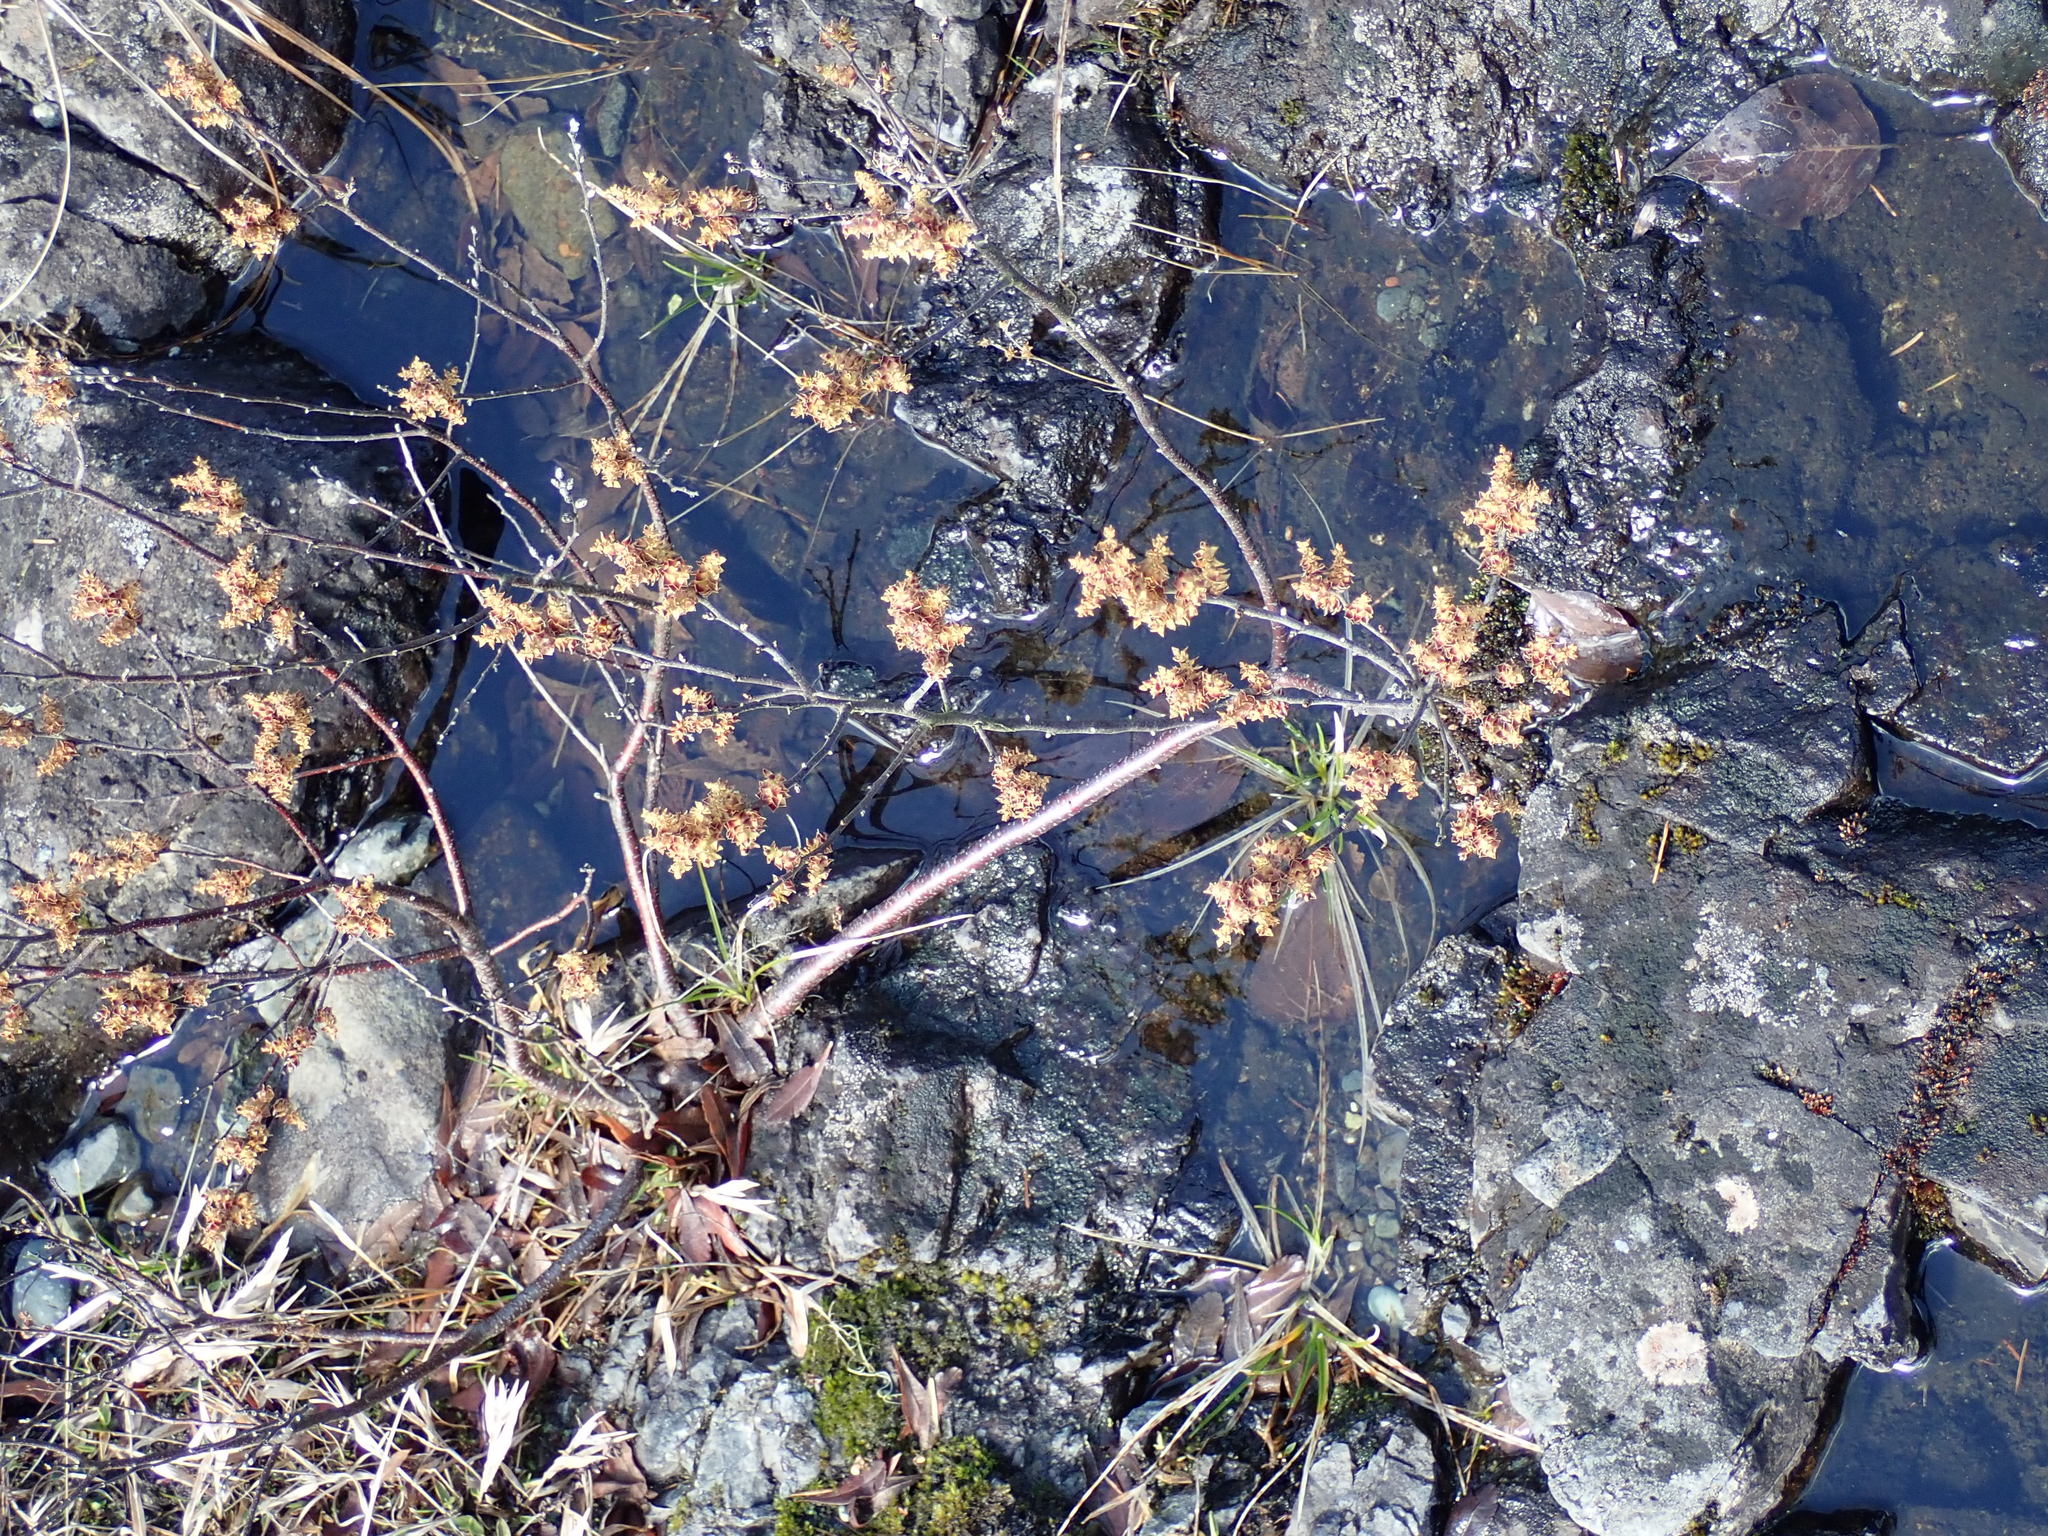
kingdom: Plantae
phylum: Tracheophyta
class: Magnoliopsida
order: Fagales
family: Myricaceae
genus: Myrica
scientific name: Myrica gale
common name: Sweet gale
